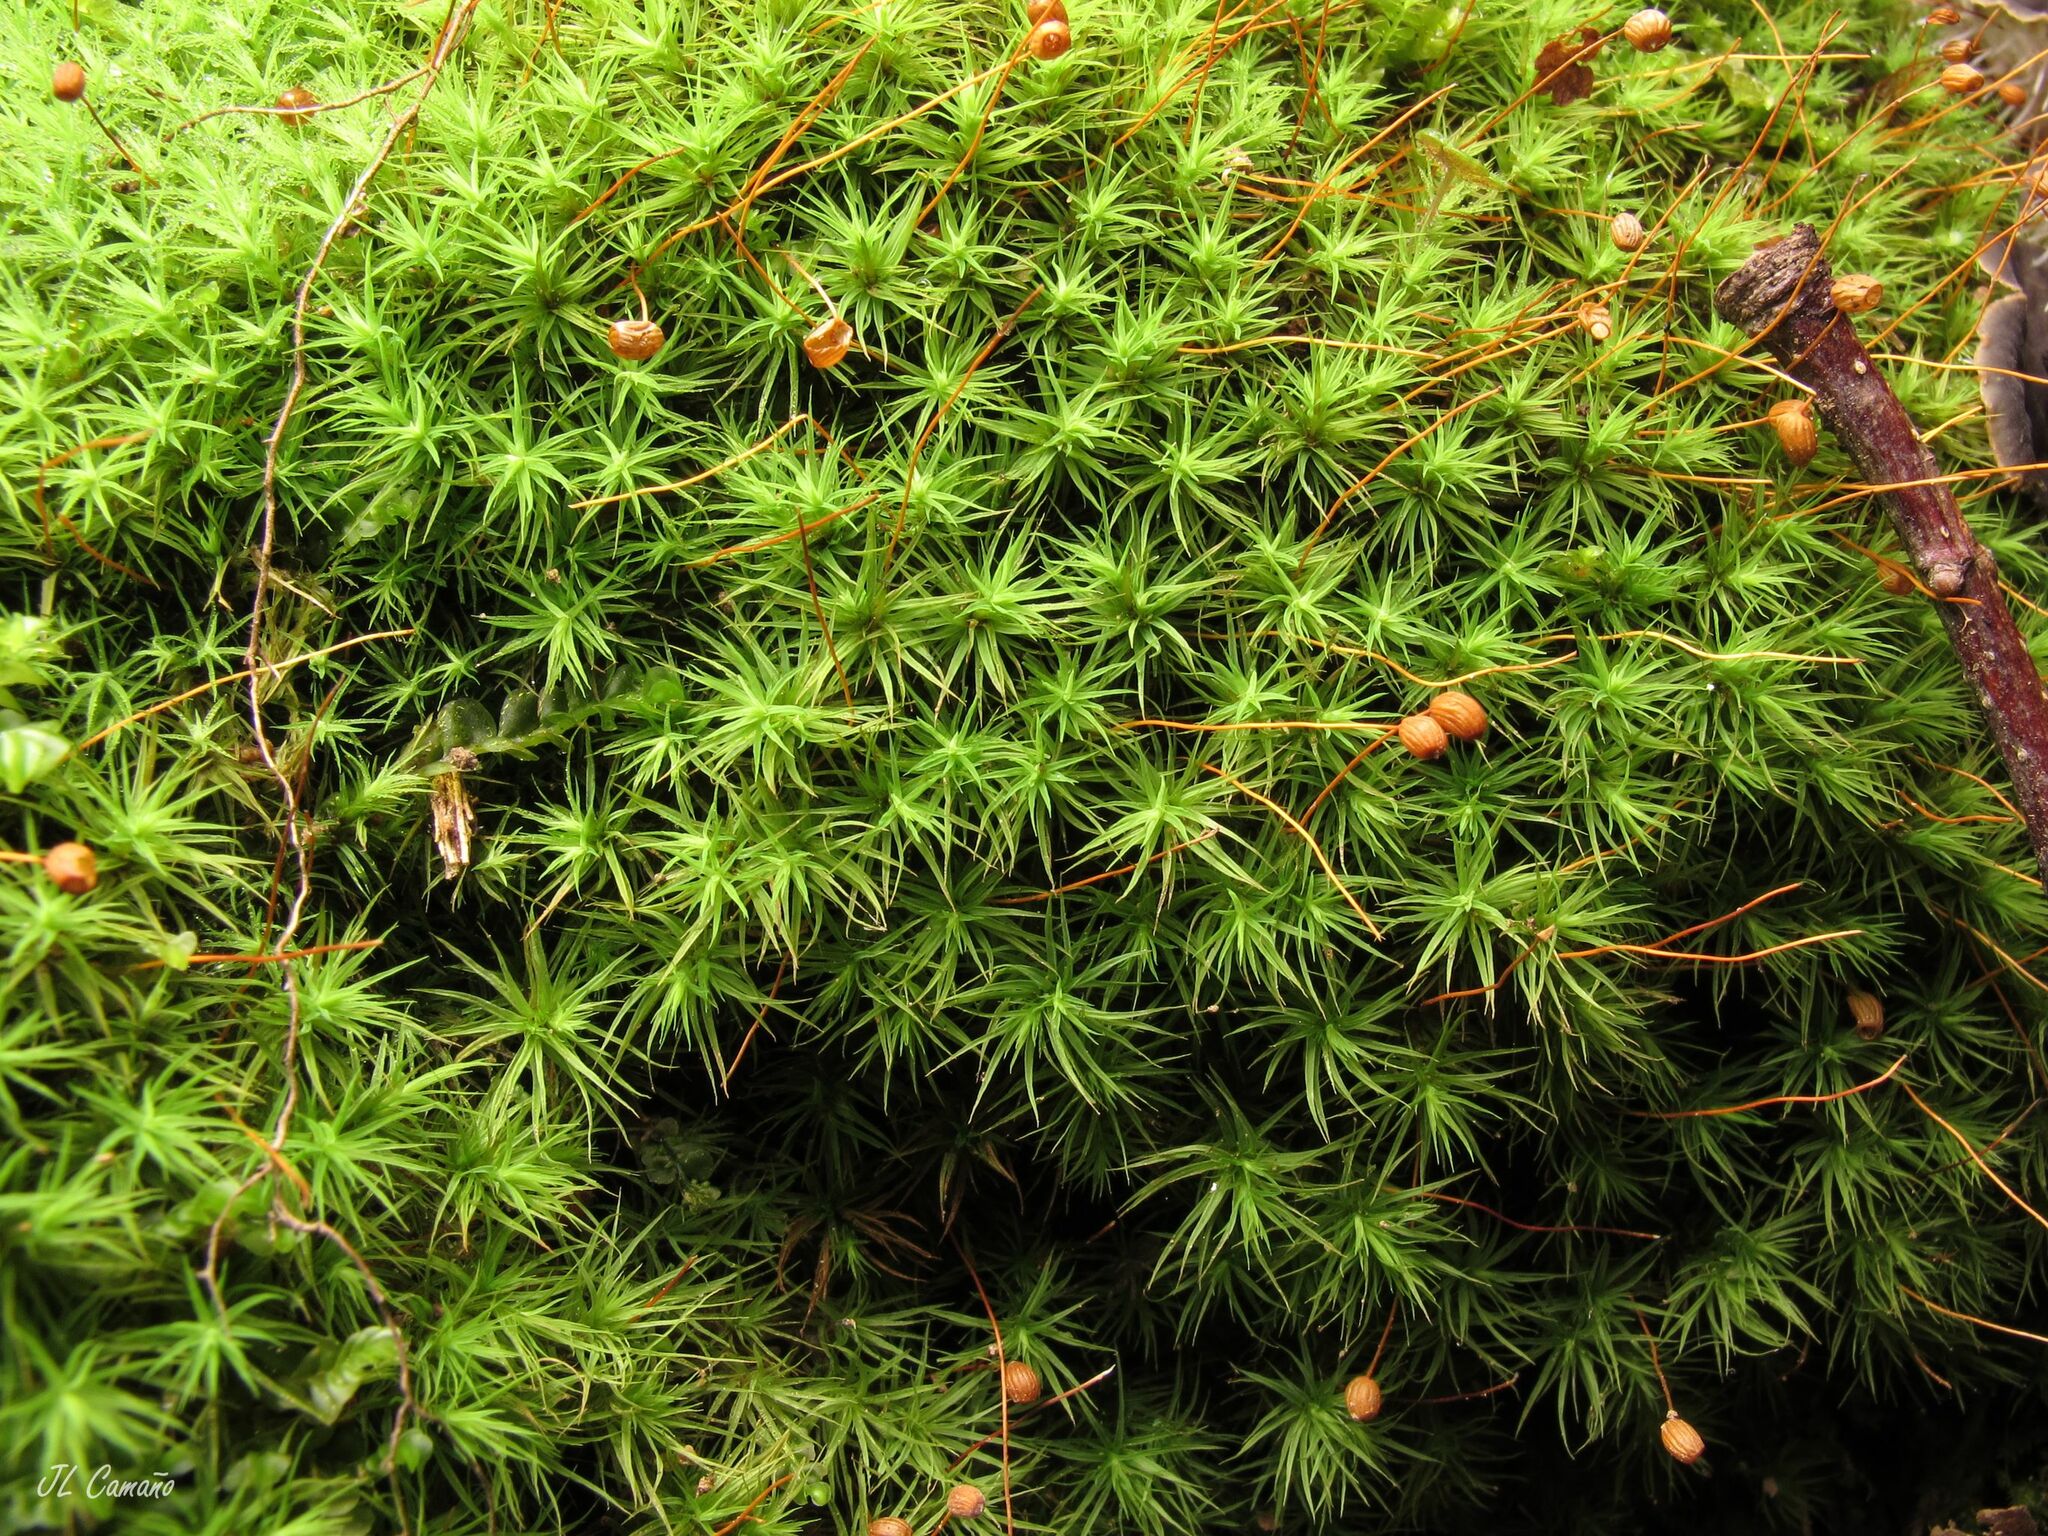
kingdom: Plantae
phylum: Bryophyta
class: Bryopsida
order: Bartramiales
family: Bartramiaceae
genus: Bartramia
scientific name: Bartramia ithyphylla
